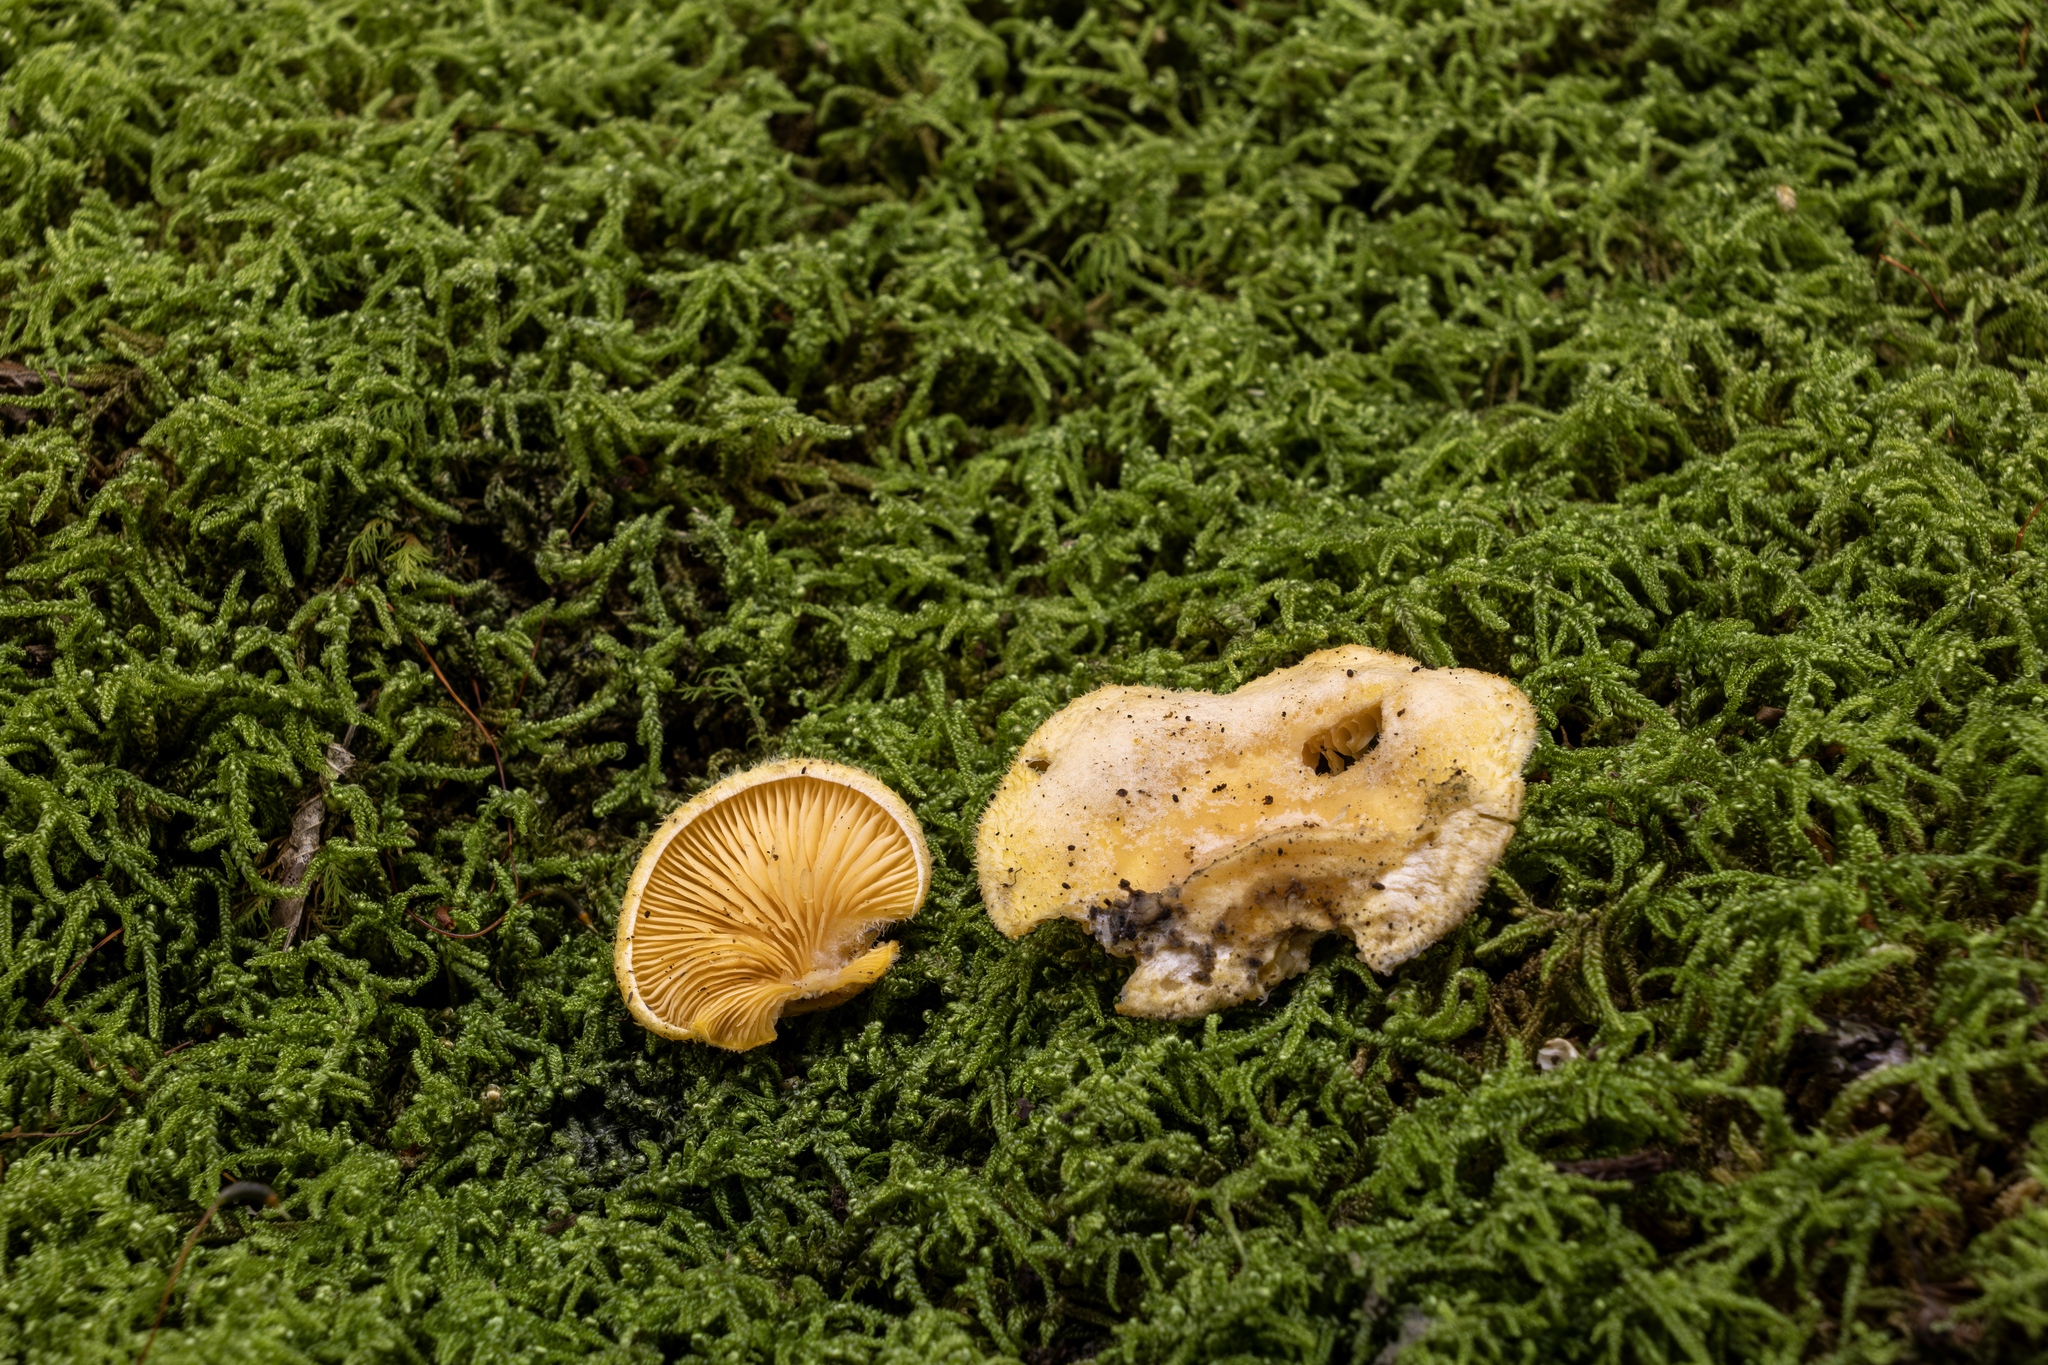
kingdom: Fungi
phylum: Basidiomycota
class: Agaricomycetes
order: Agaricales
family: Phyllotopsidaceae
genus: Phyllotopsis
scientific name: Phyllotopsis nidulans
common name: Orange mock oyster
